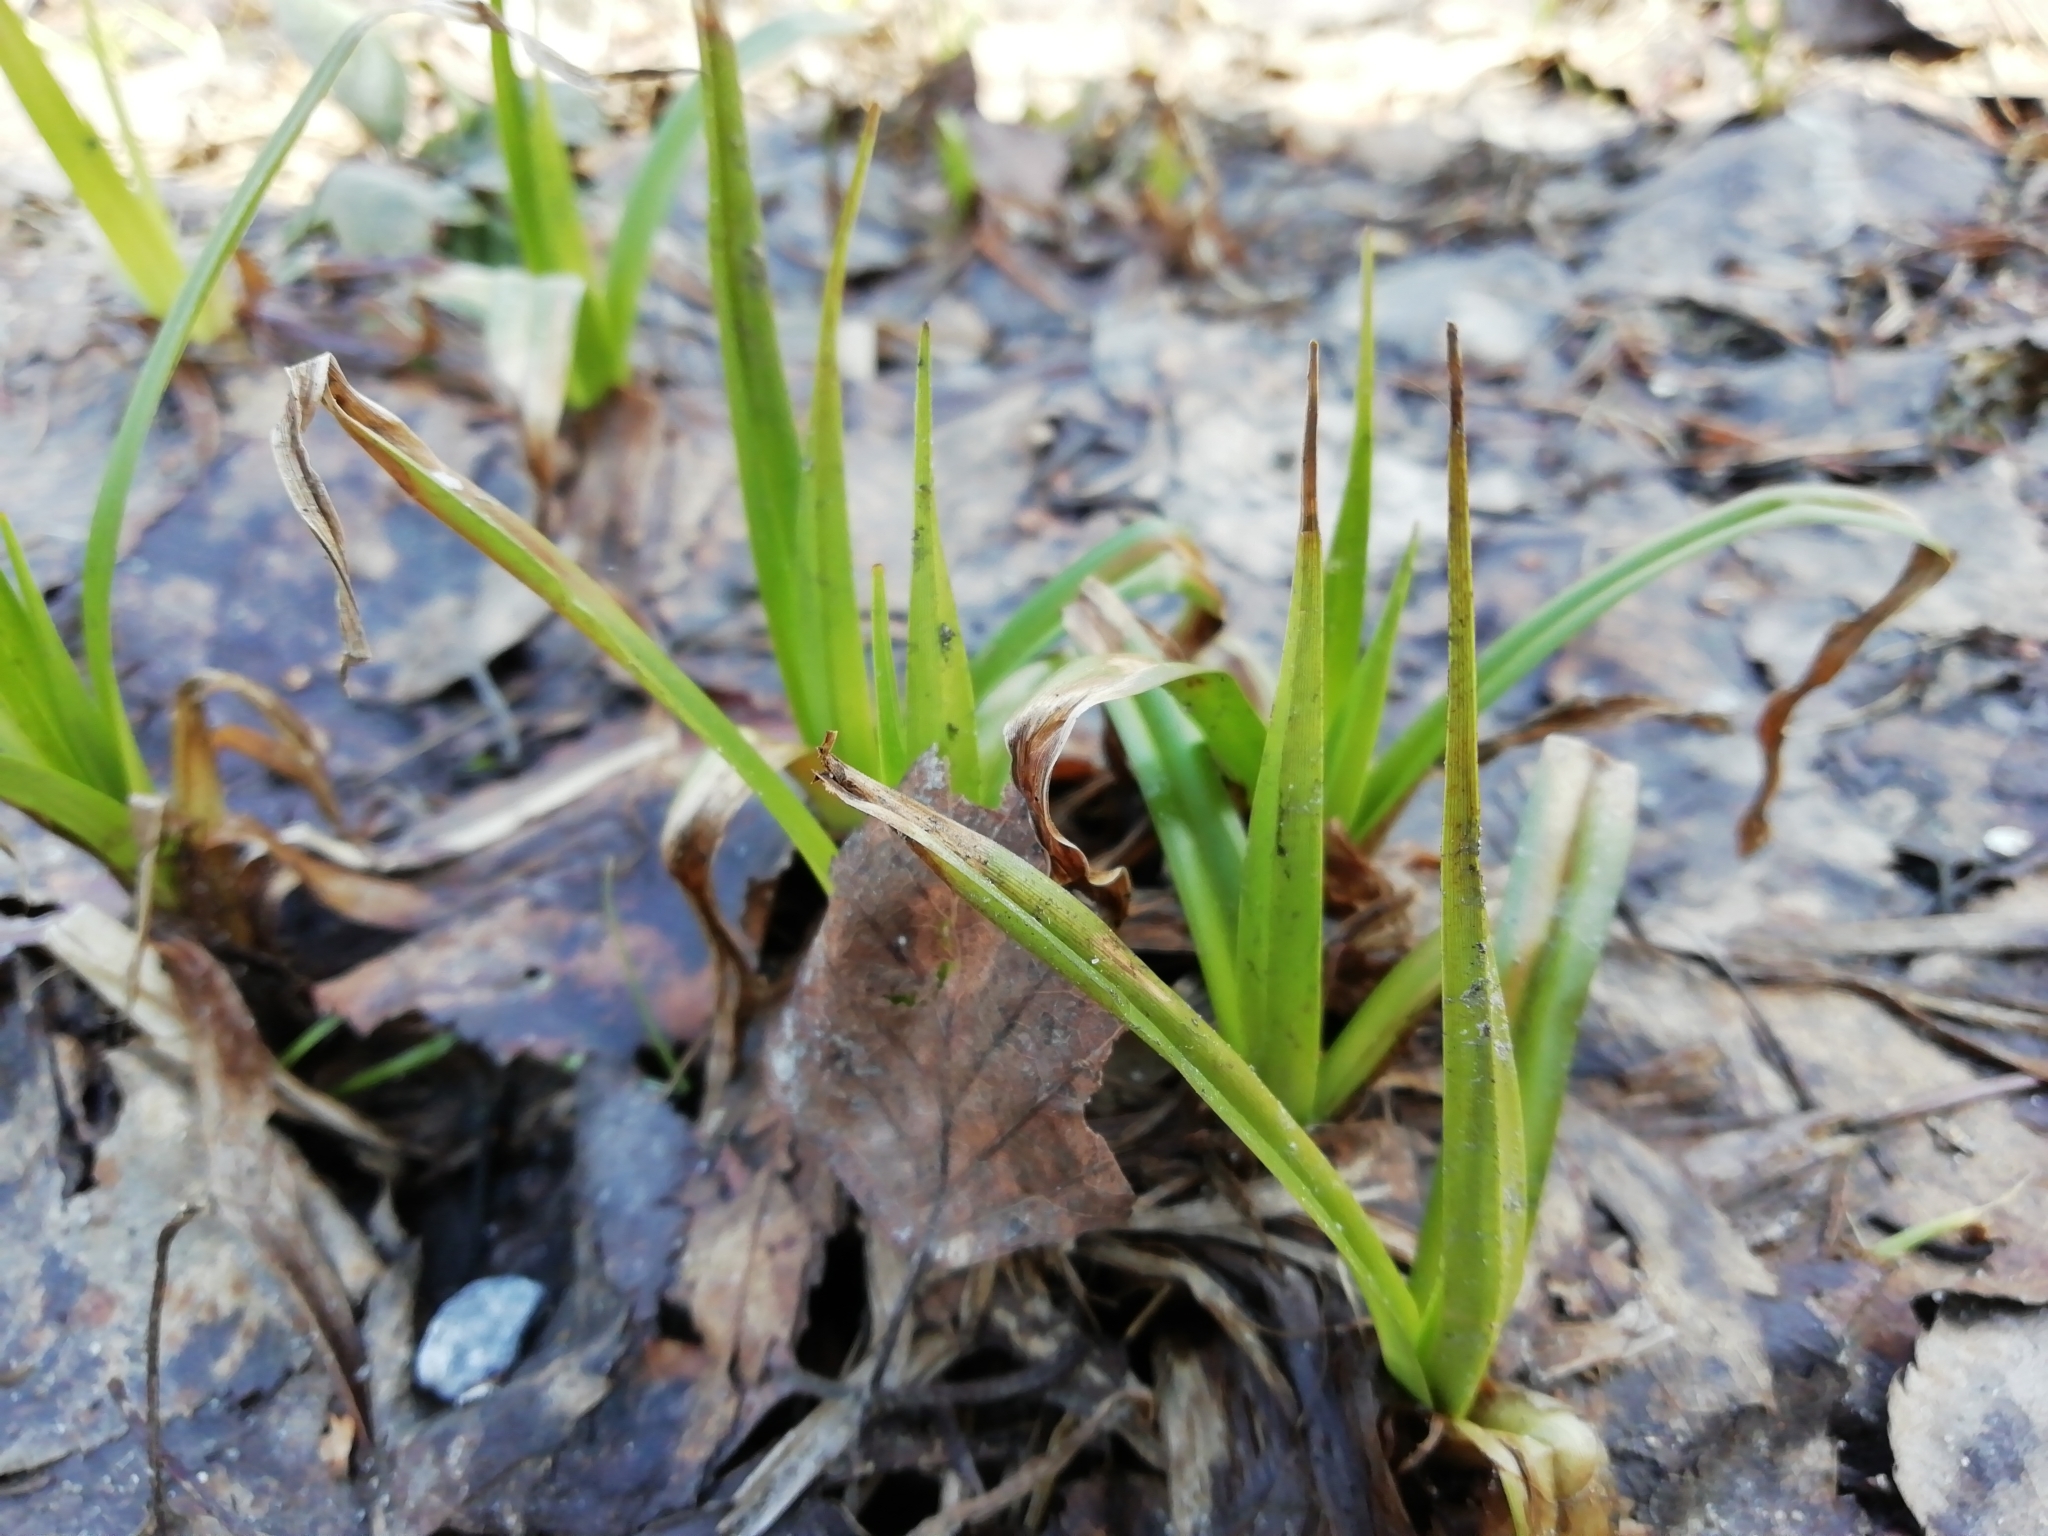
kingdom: Plantae
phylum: Tracheophyta
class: Liliopsida
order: Poales
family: Cyperaceae
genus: Scirpus
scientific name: Scirpus sylvaticus
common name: Wood club-rush
